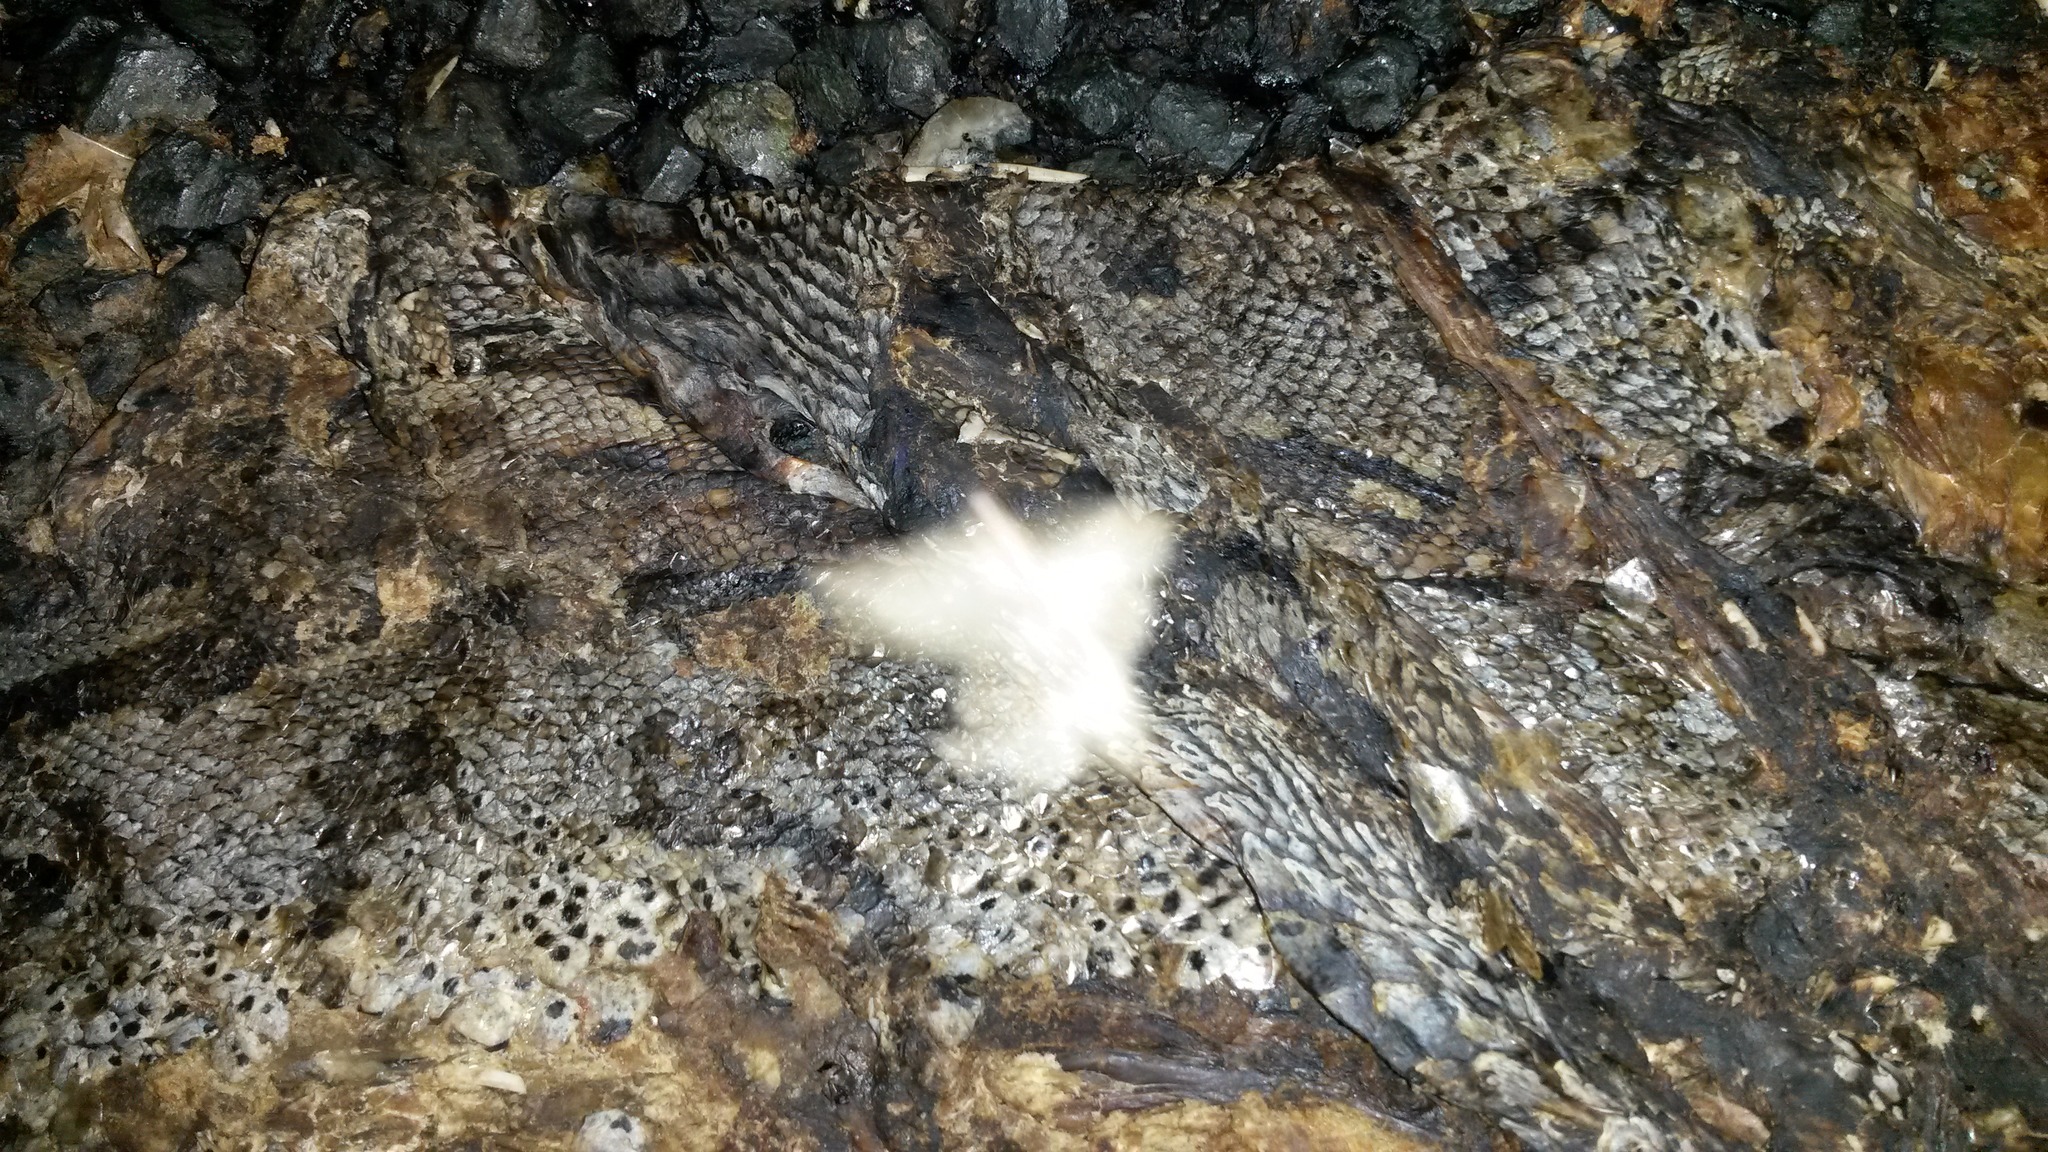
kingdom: Animalia
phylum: Chordata
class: Squamata
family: Pythonidae
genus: Python
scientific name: Python natalensis
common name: Southern african rock python
